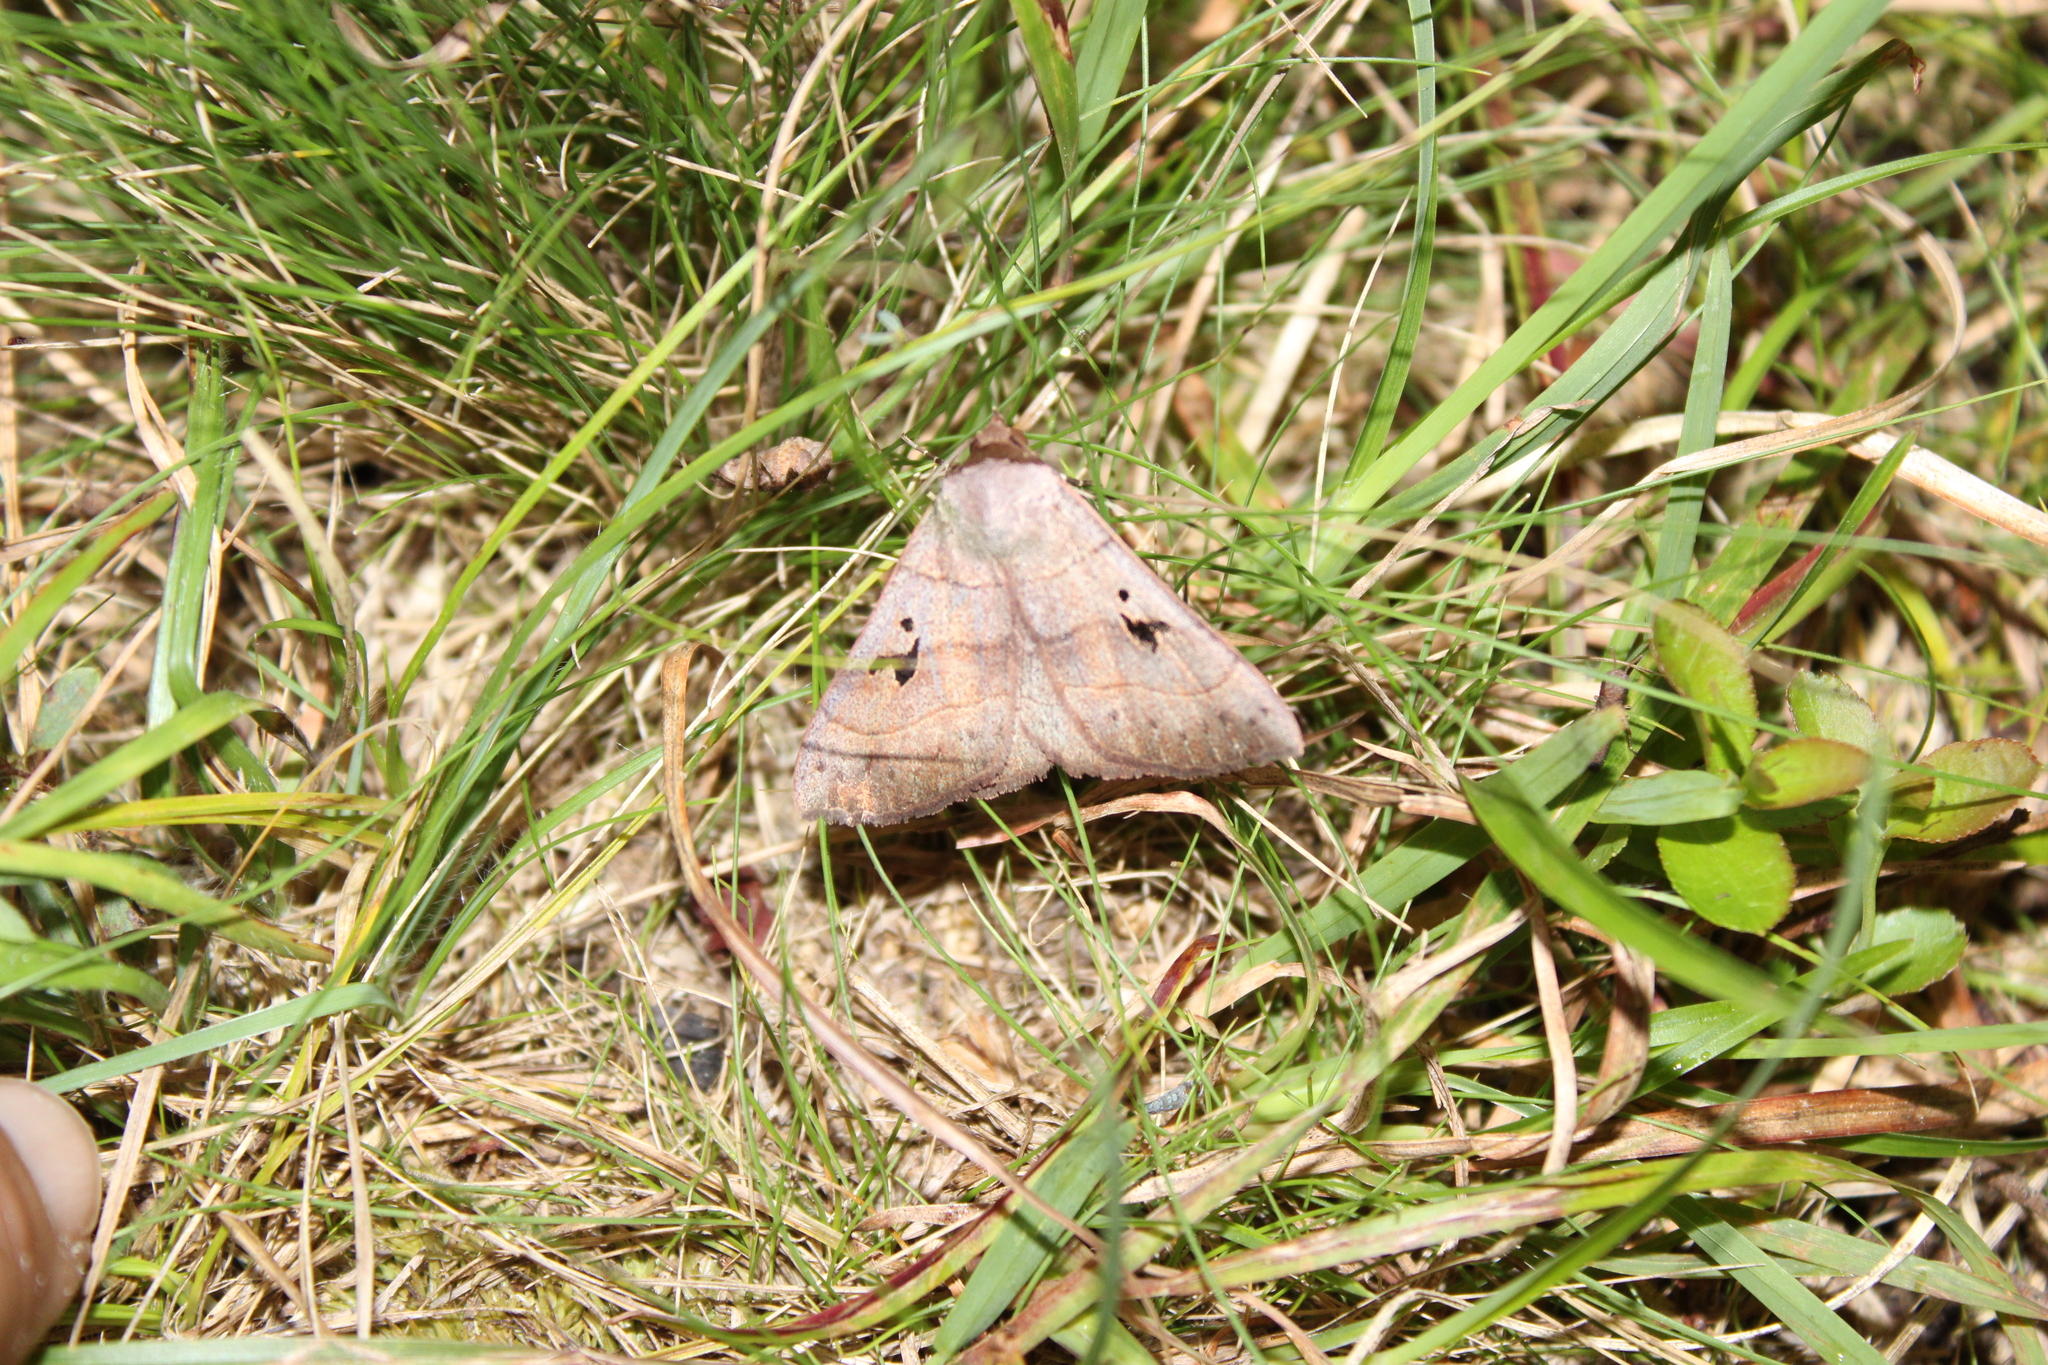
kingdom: Animalia
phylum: Arthropoda
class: Insecta
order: Lepidoptera
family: Erebidae
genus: Panopoda
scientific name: Panopoda carneicosta
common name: Brown panopoda moth
